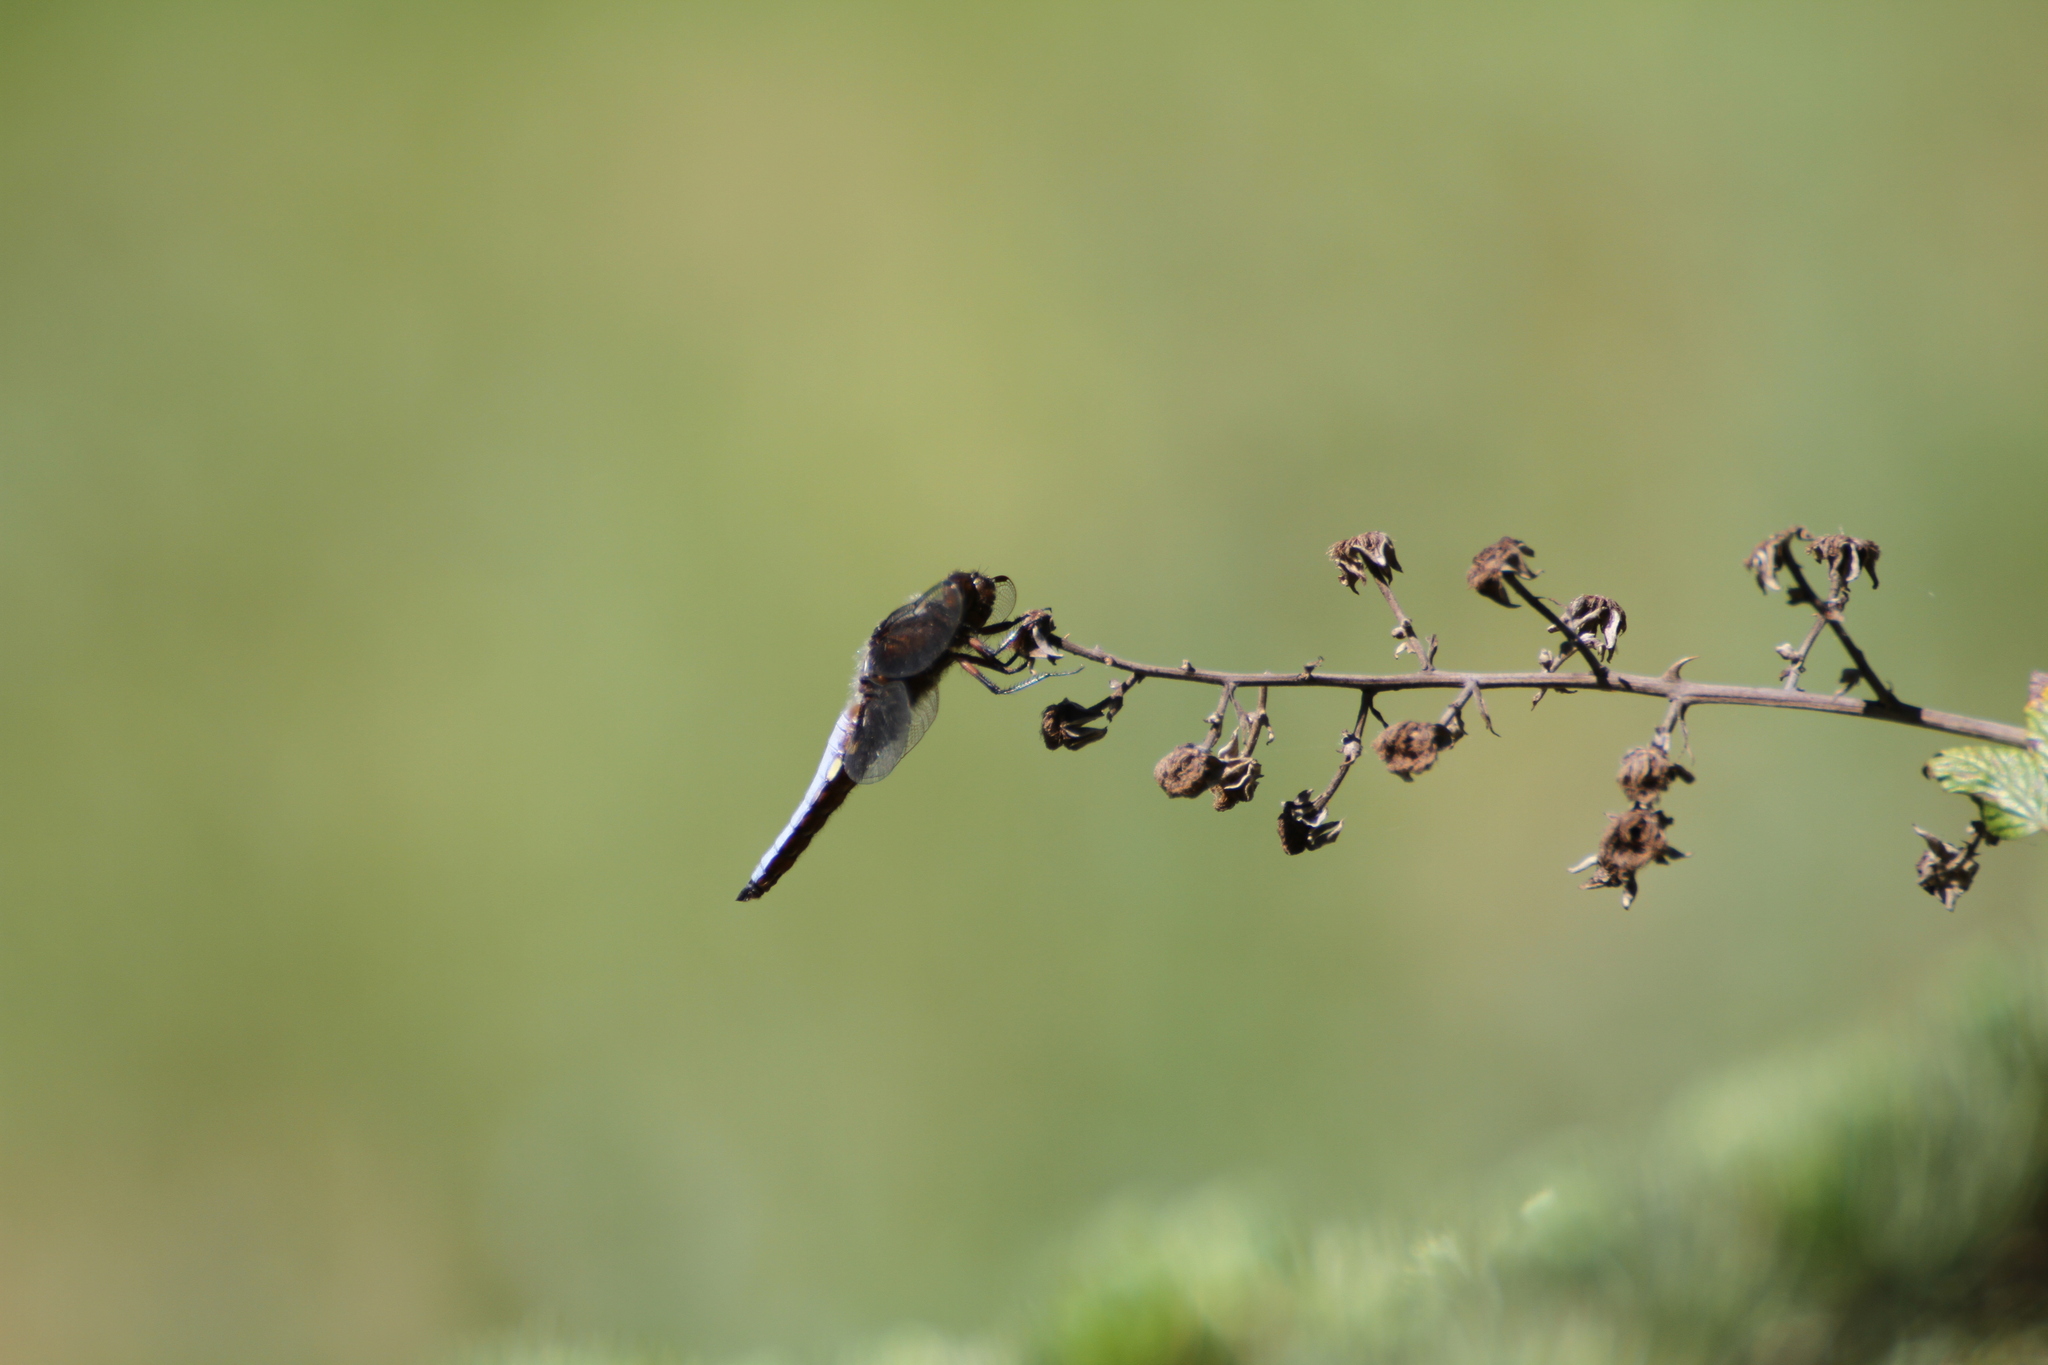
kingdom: Animalia
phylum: Arthropoda
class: Insecta
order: Odonata
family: Libellulidae
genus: Libellula
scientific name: Libellula depressa
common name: Broad-bodied chaser
